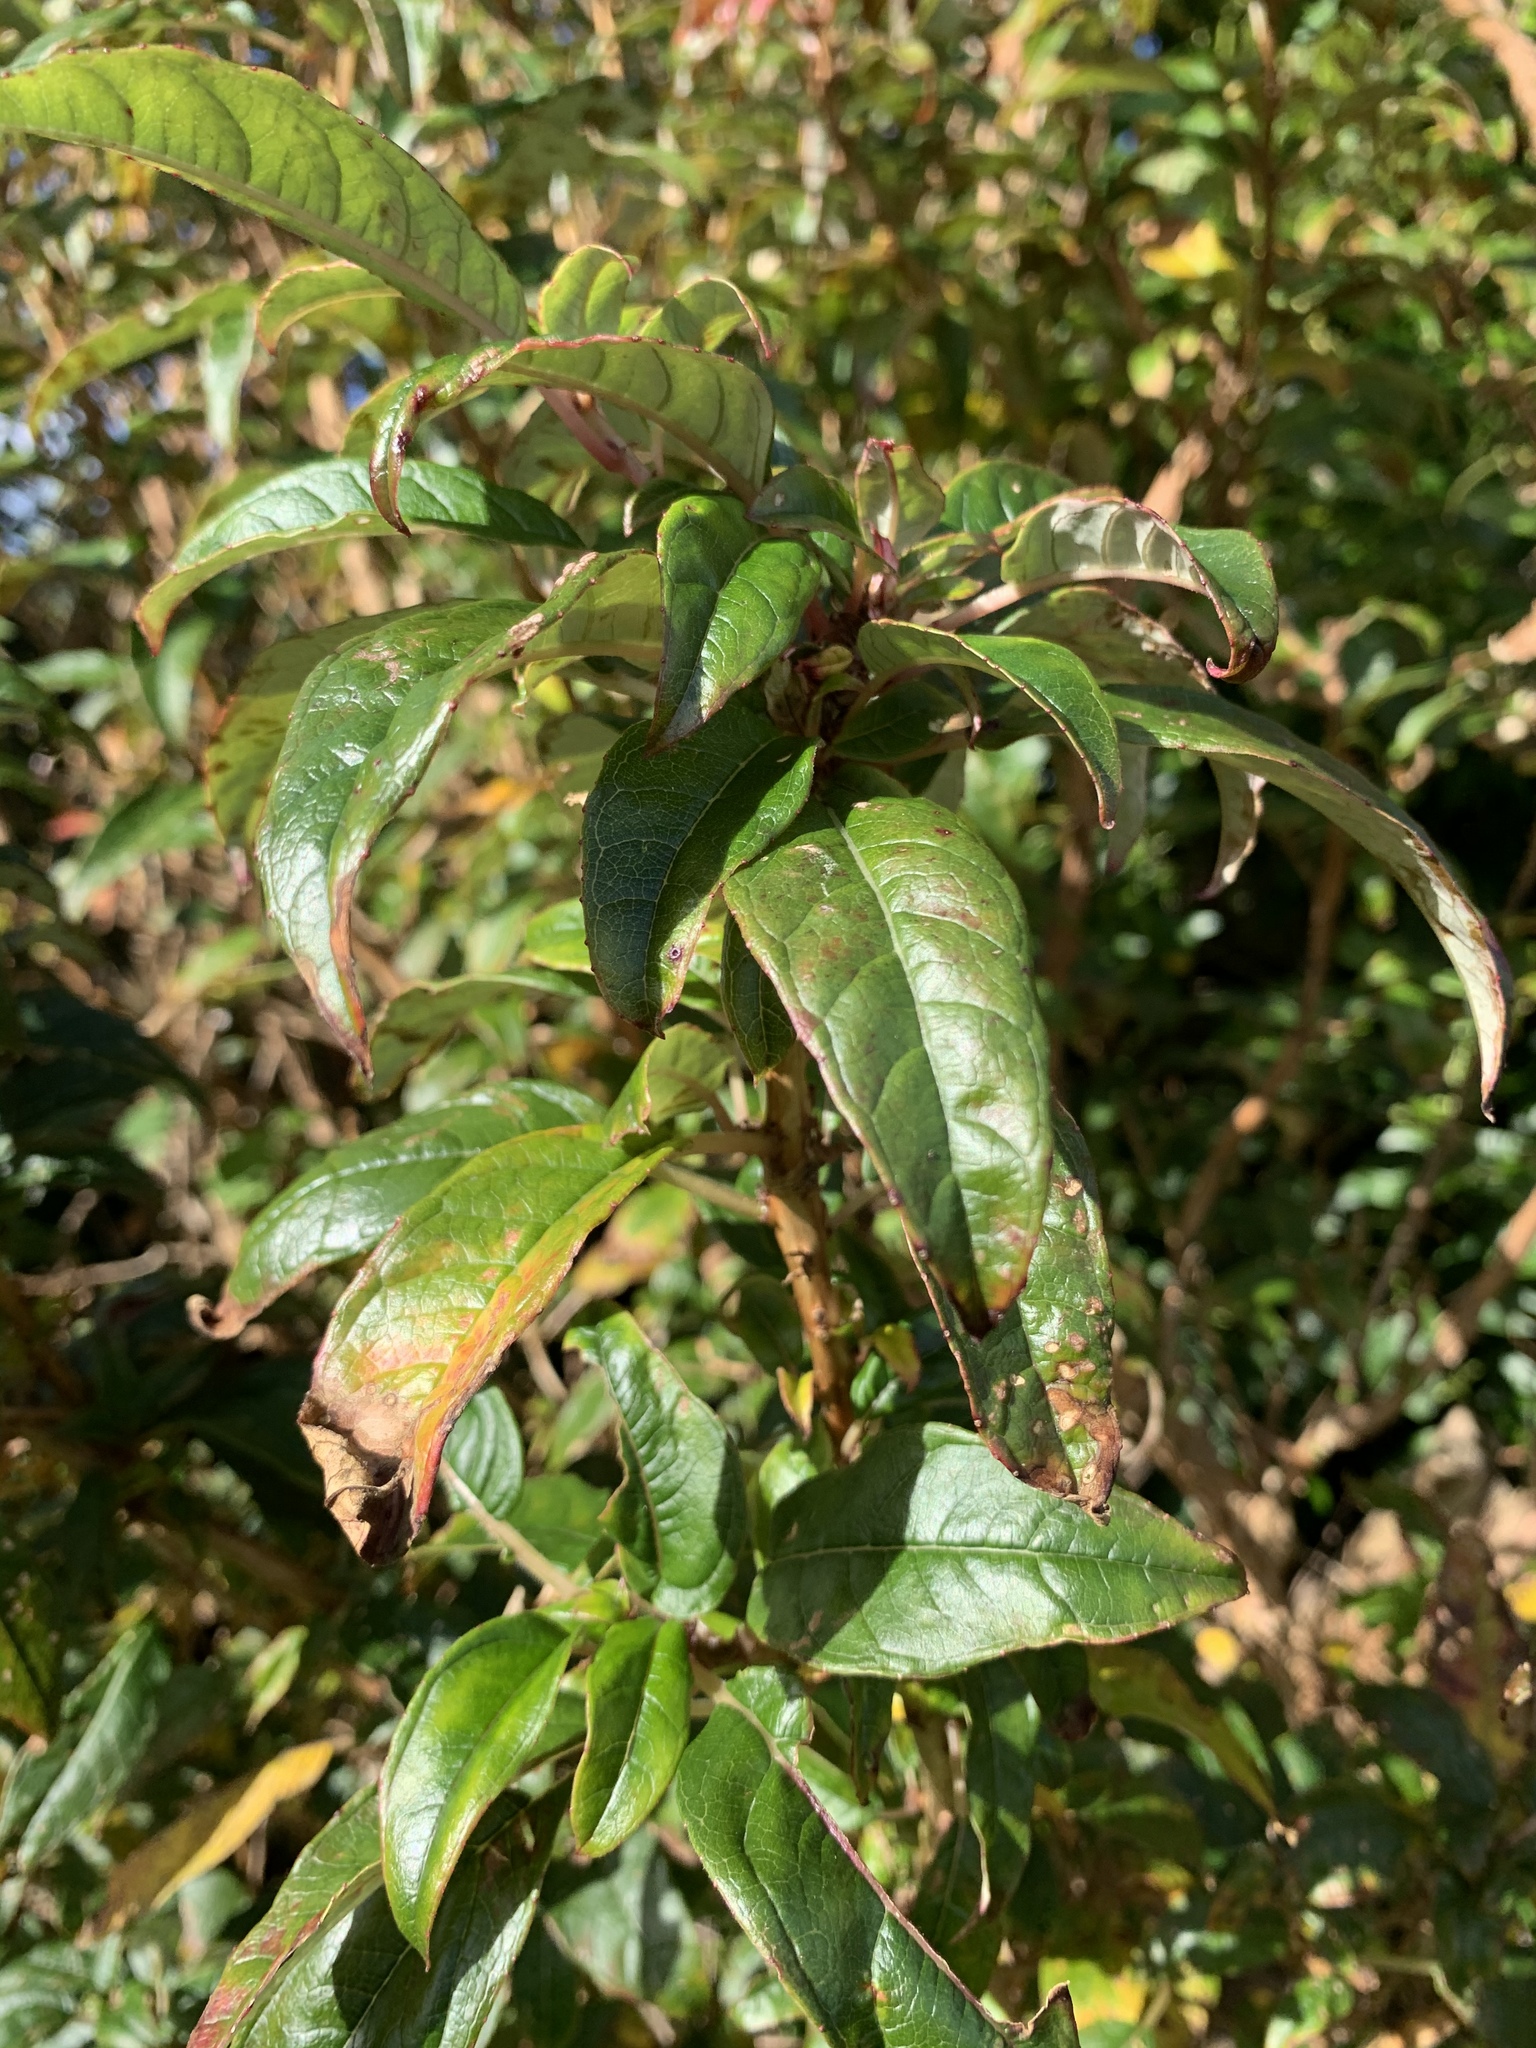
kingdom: Plantae
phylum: Tracheophyta
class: Magnoliopsida
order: Myrtales
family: Onagraceae
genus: Fuchsia
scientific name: Fuchsia excorticata
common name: Tree fuchsia
